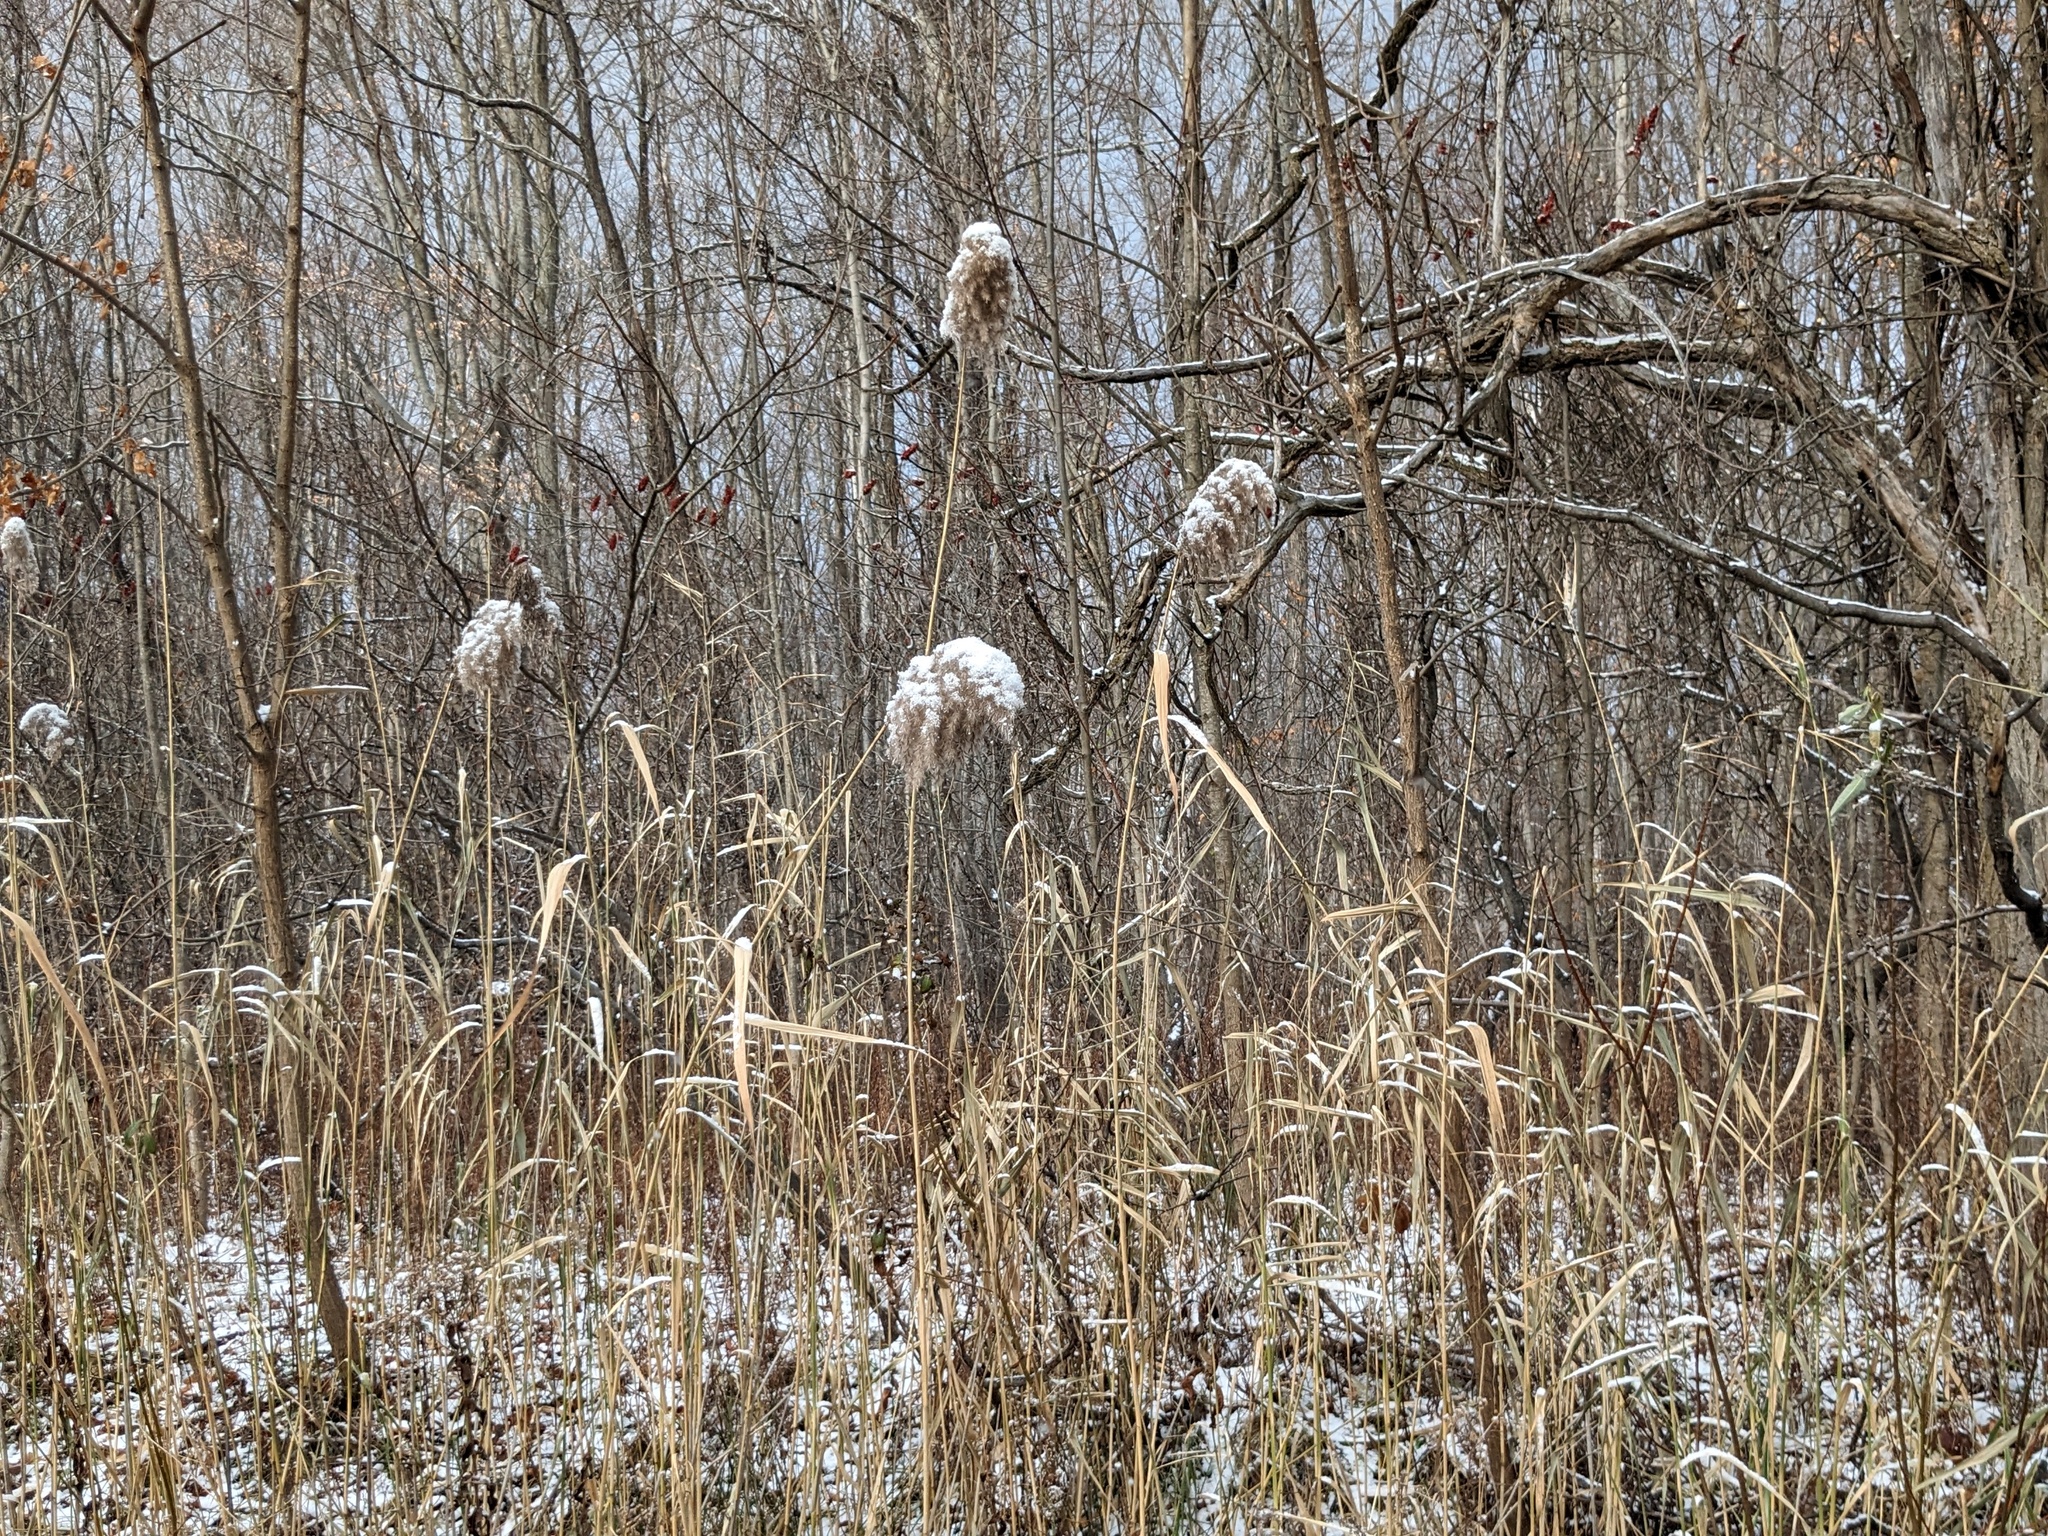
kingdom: Plantae
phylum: Tracheophyta
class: Liliopsida
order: Poales
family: Poaceae
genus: Phragmites
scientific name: Phragmites australis
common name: Common reed
